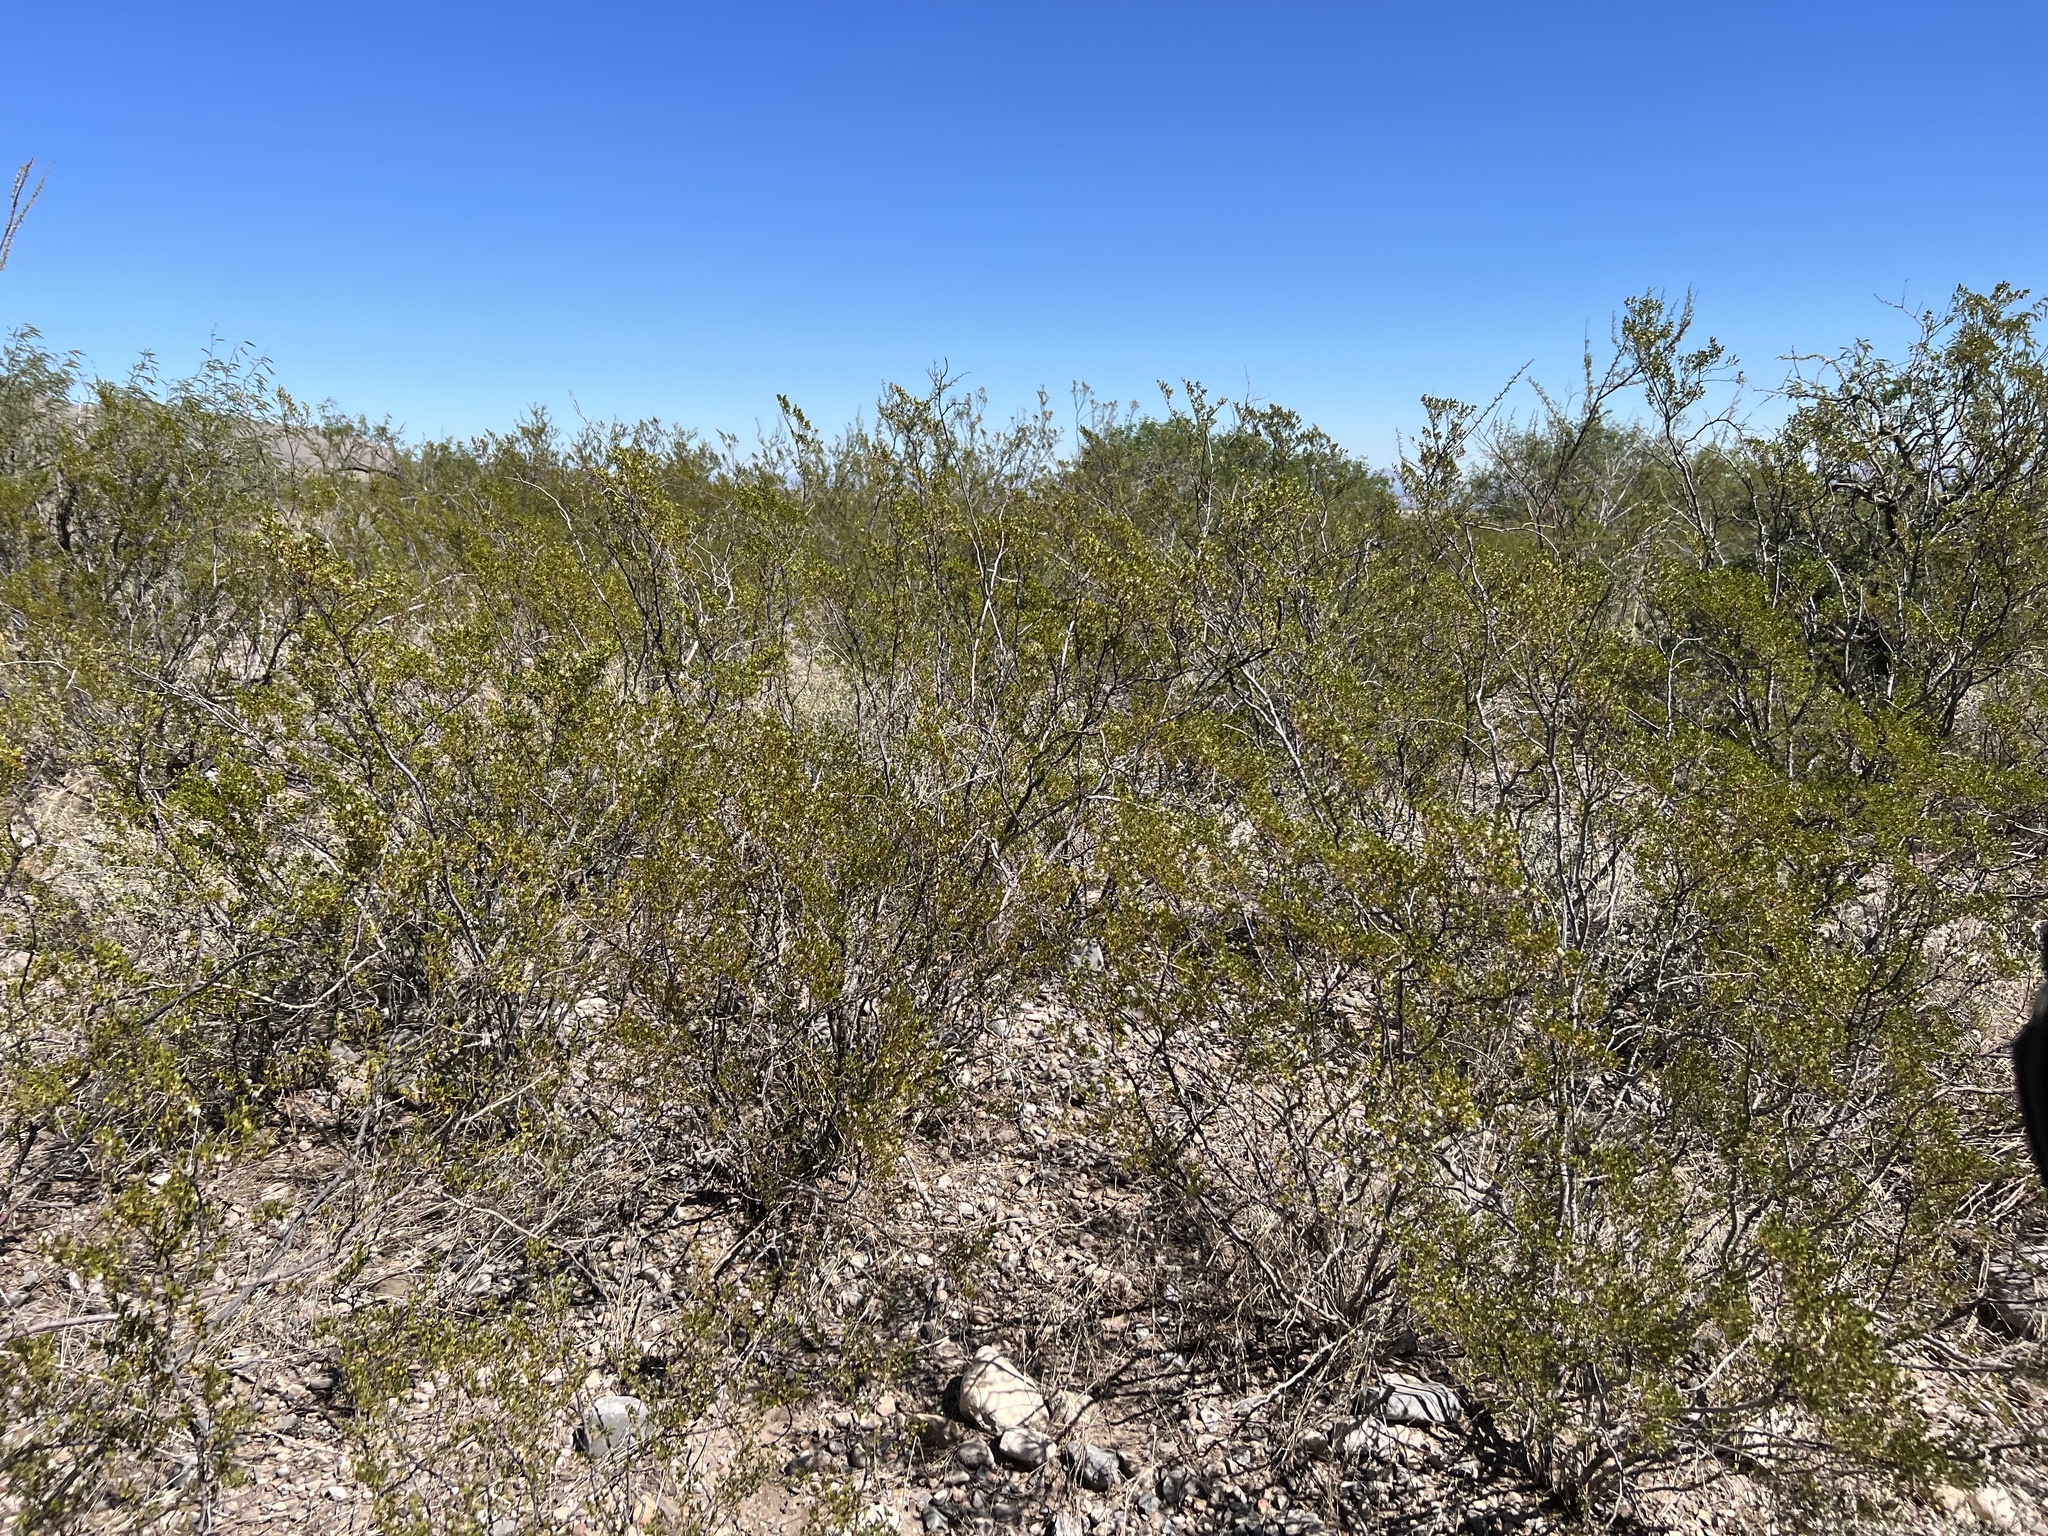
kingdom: Plantae
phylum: Tracheophyta
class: Magnoliopsida
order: Zygophyllales
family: Zygophyllaceae
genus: Larrea
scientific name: Larrea tridentata
